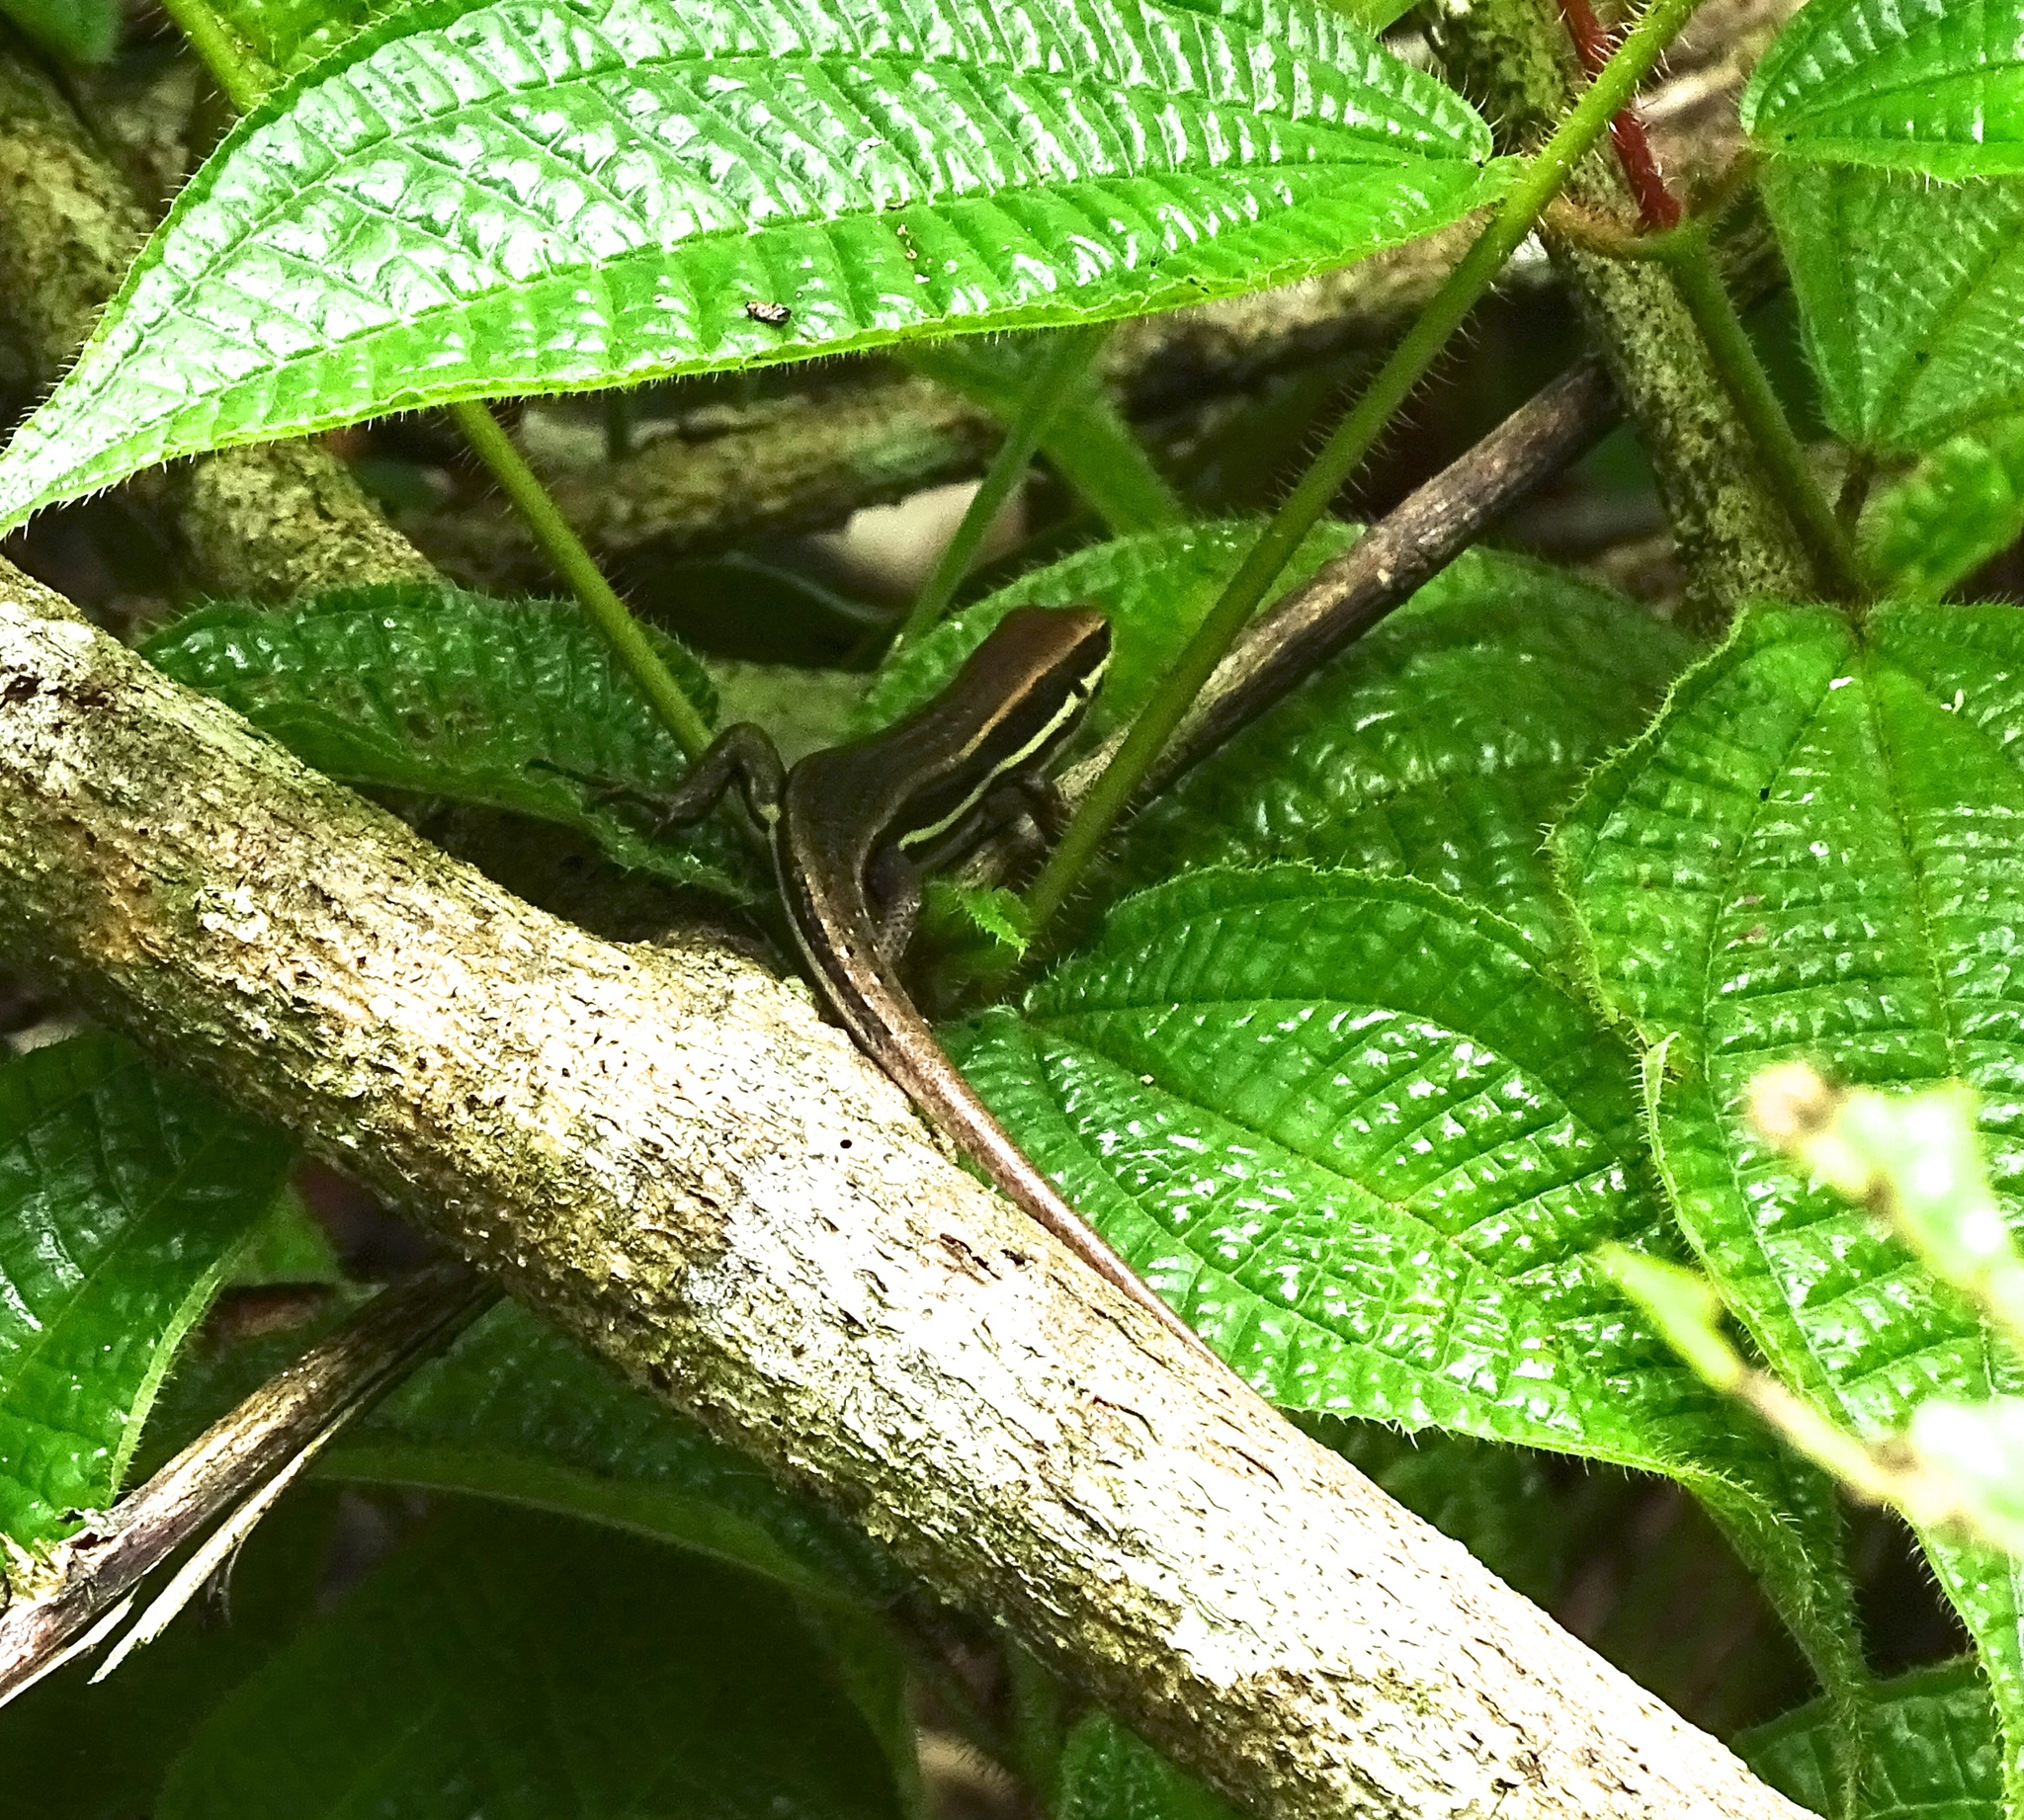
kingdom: Animalia
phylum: Chordata
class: Squamata
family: Scincidae
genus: Trachylepis
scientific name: Trachylepis gravenhorstii
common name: Gravenhorst's mabuya
